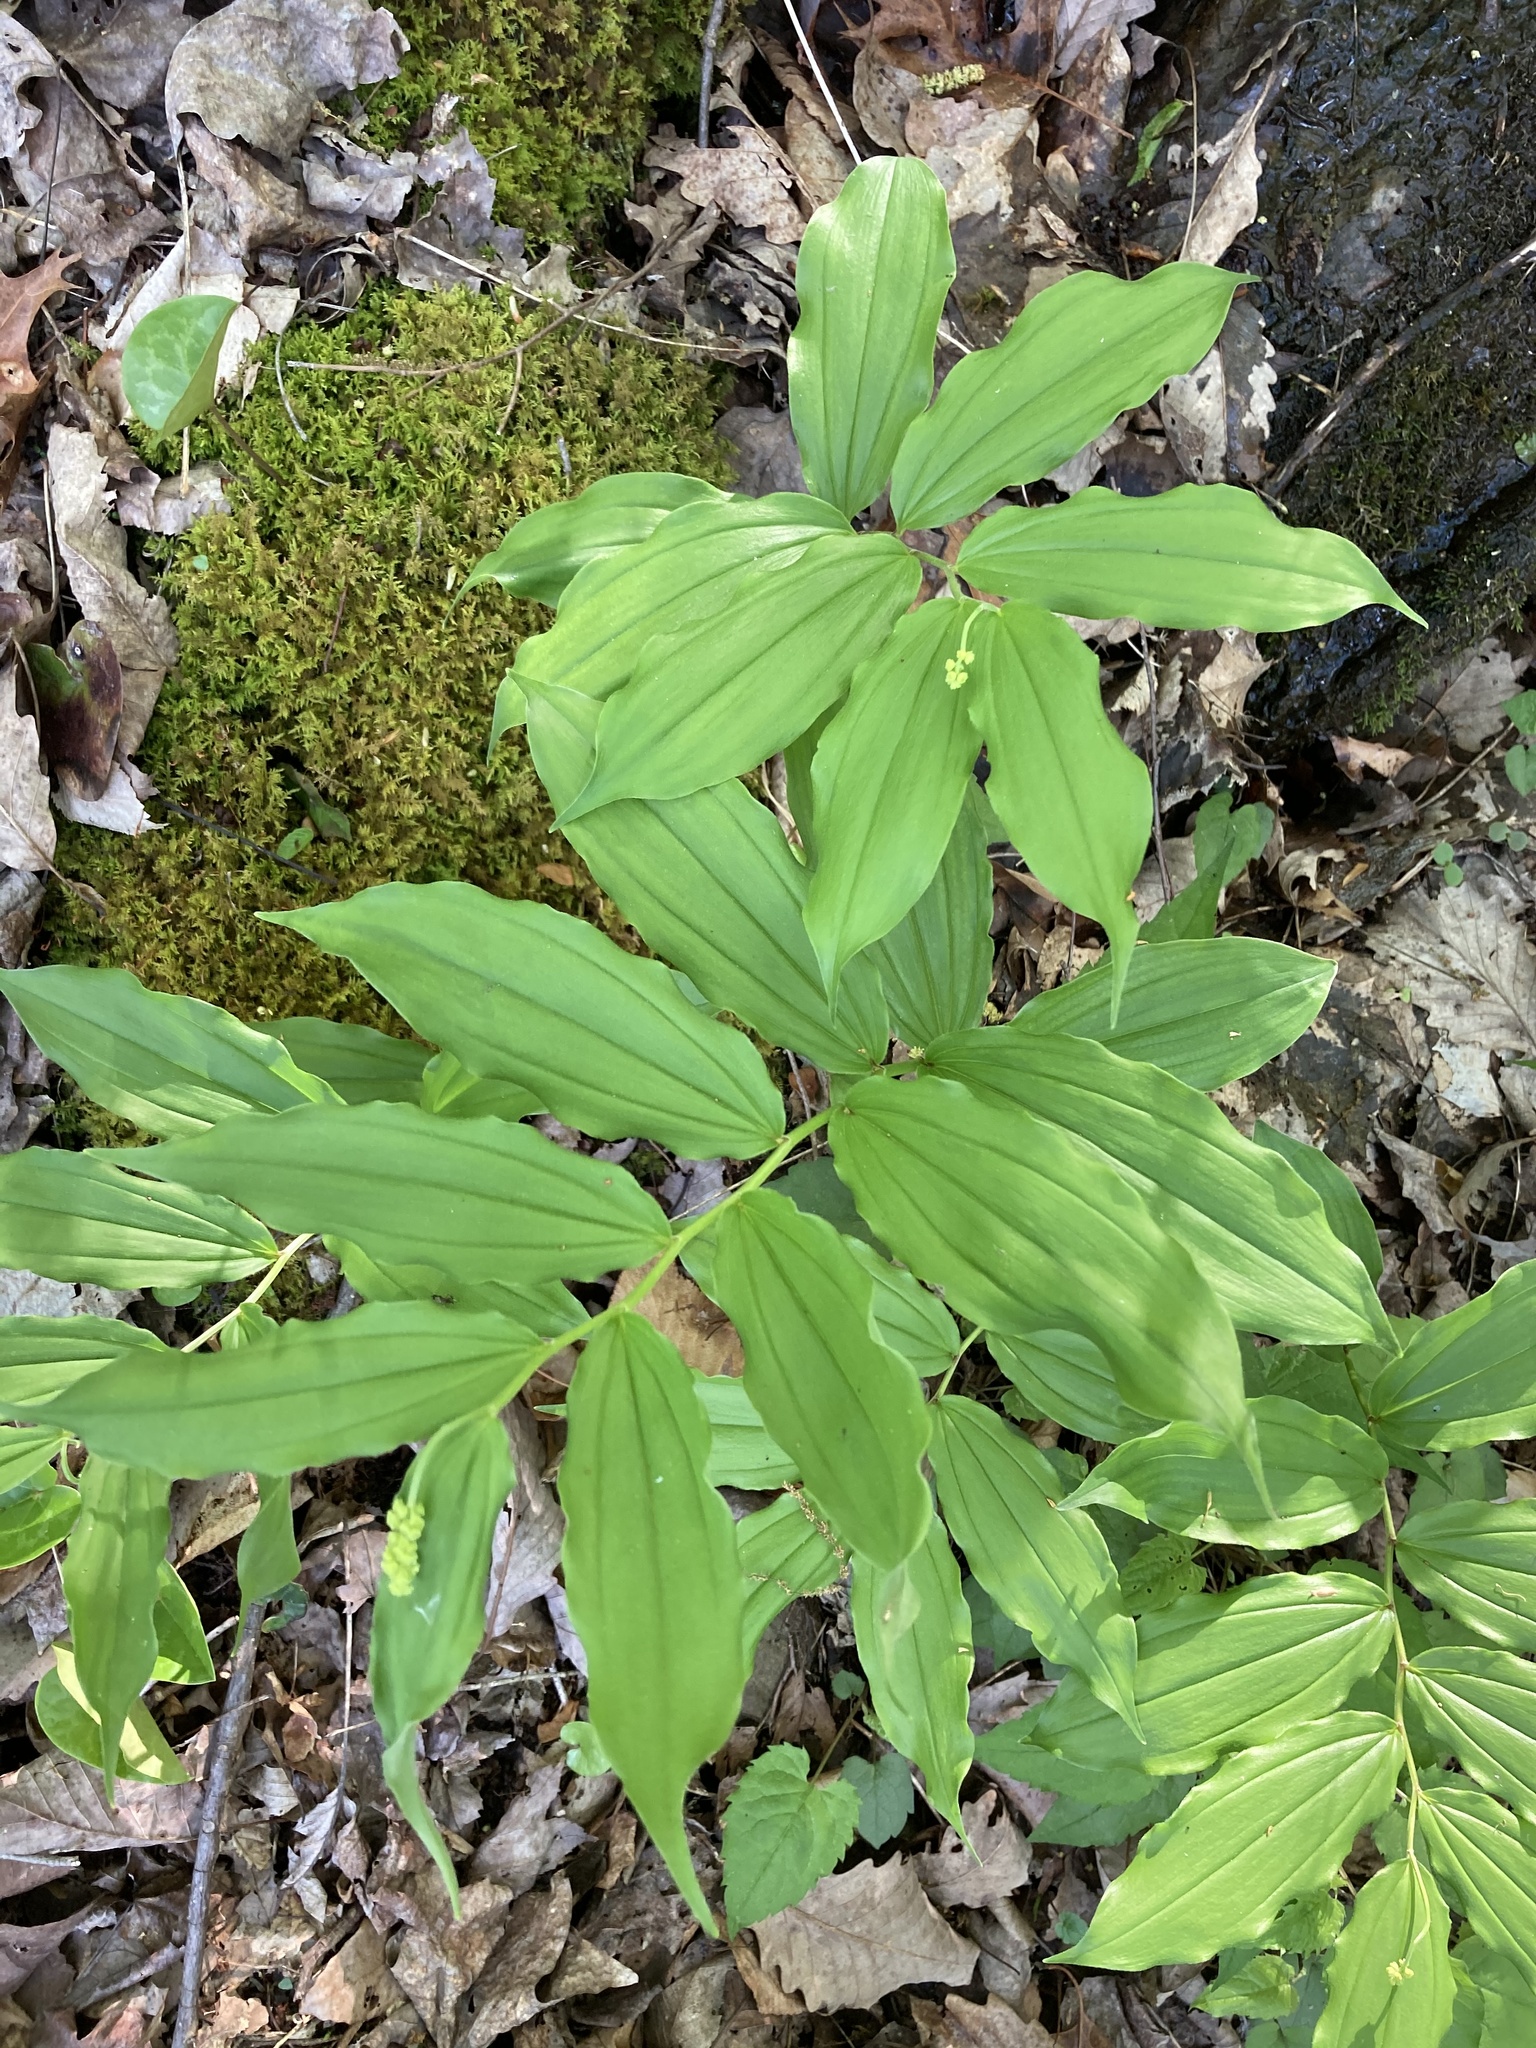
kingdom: Plantae
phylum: Tracheophyta
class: Liliopsida
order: Asparagales
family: Asparagaceae
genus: Maianthemum
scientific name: Maianthemum racemosum
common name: False spikenard
